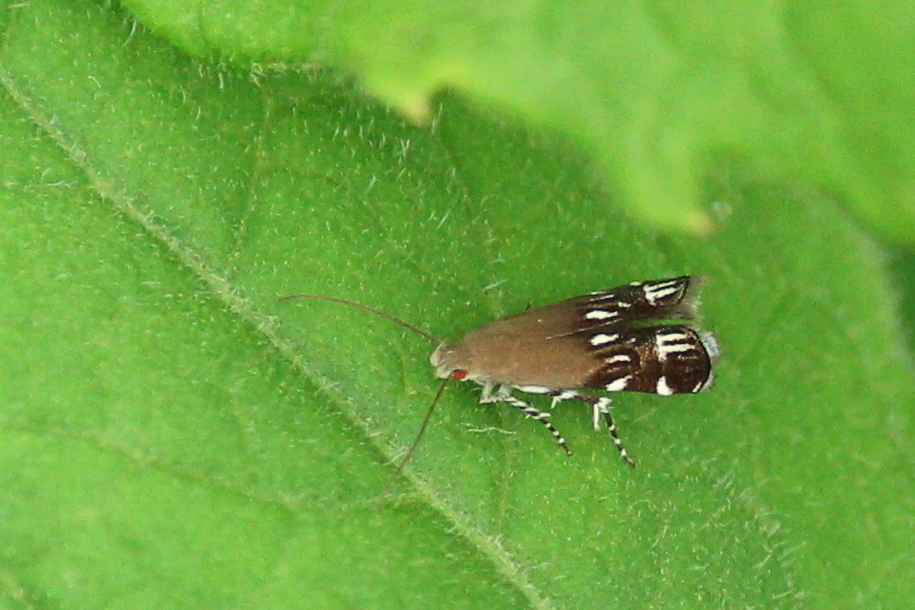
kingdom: Animalia
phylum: Arthropoda
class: Insecta
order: Lepidoptera
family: Gelechiidae
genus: Anacampsis
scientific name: Anacampsis levipedella
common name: Silver-dashed anacampsis
